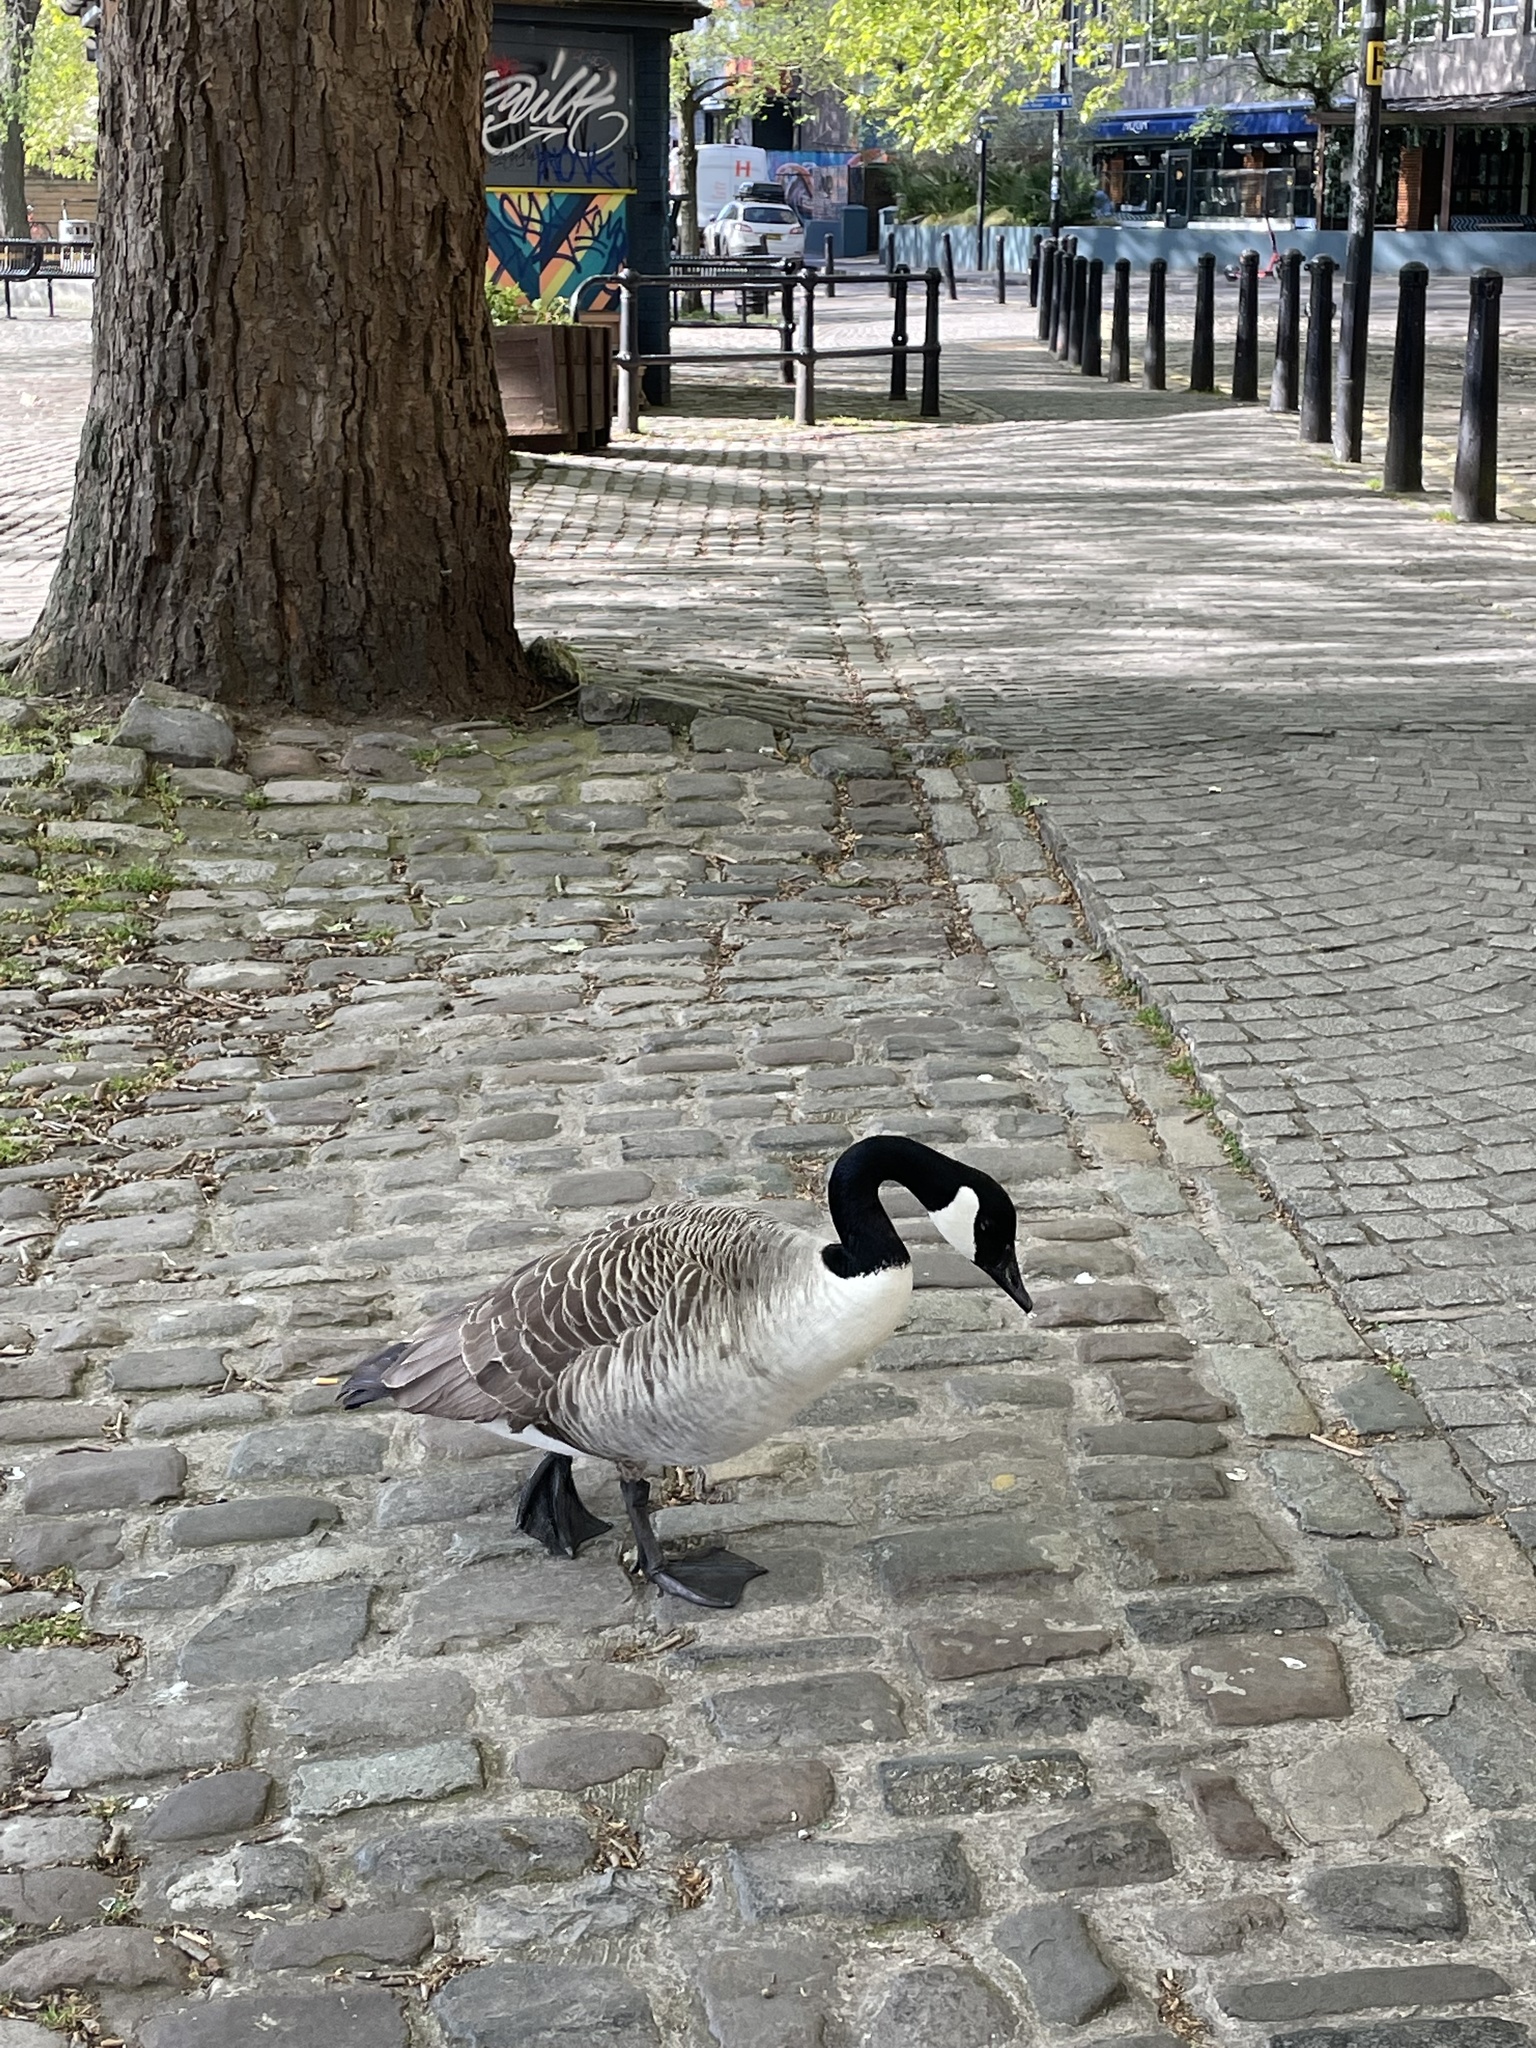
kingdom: Animalia
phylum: Chordata
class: Aves
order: Anseriformes
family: Anatidae
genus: Branta
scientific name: Branta canadensis
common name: Canada goose
